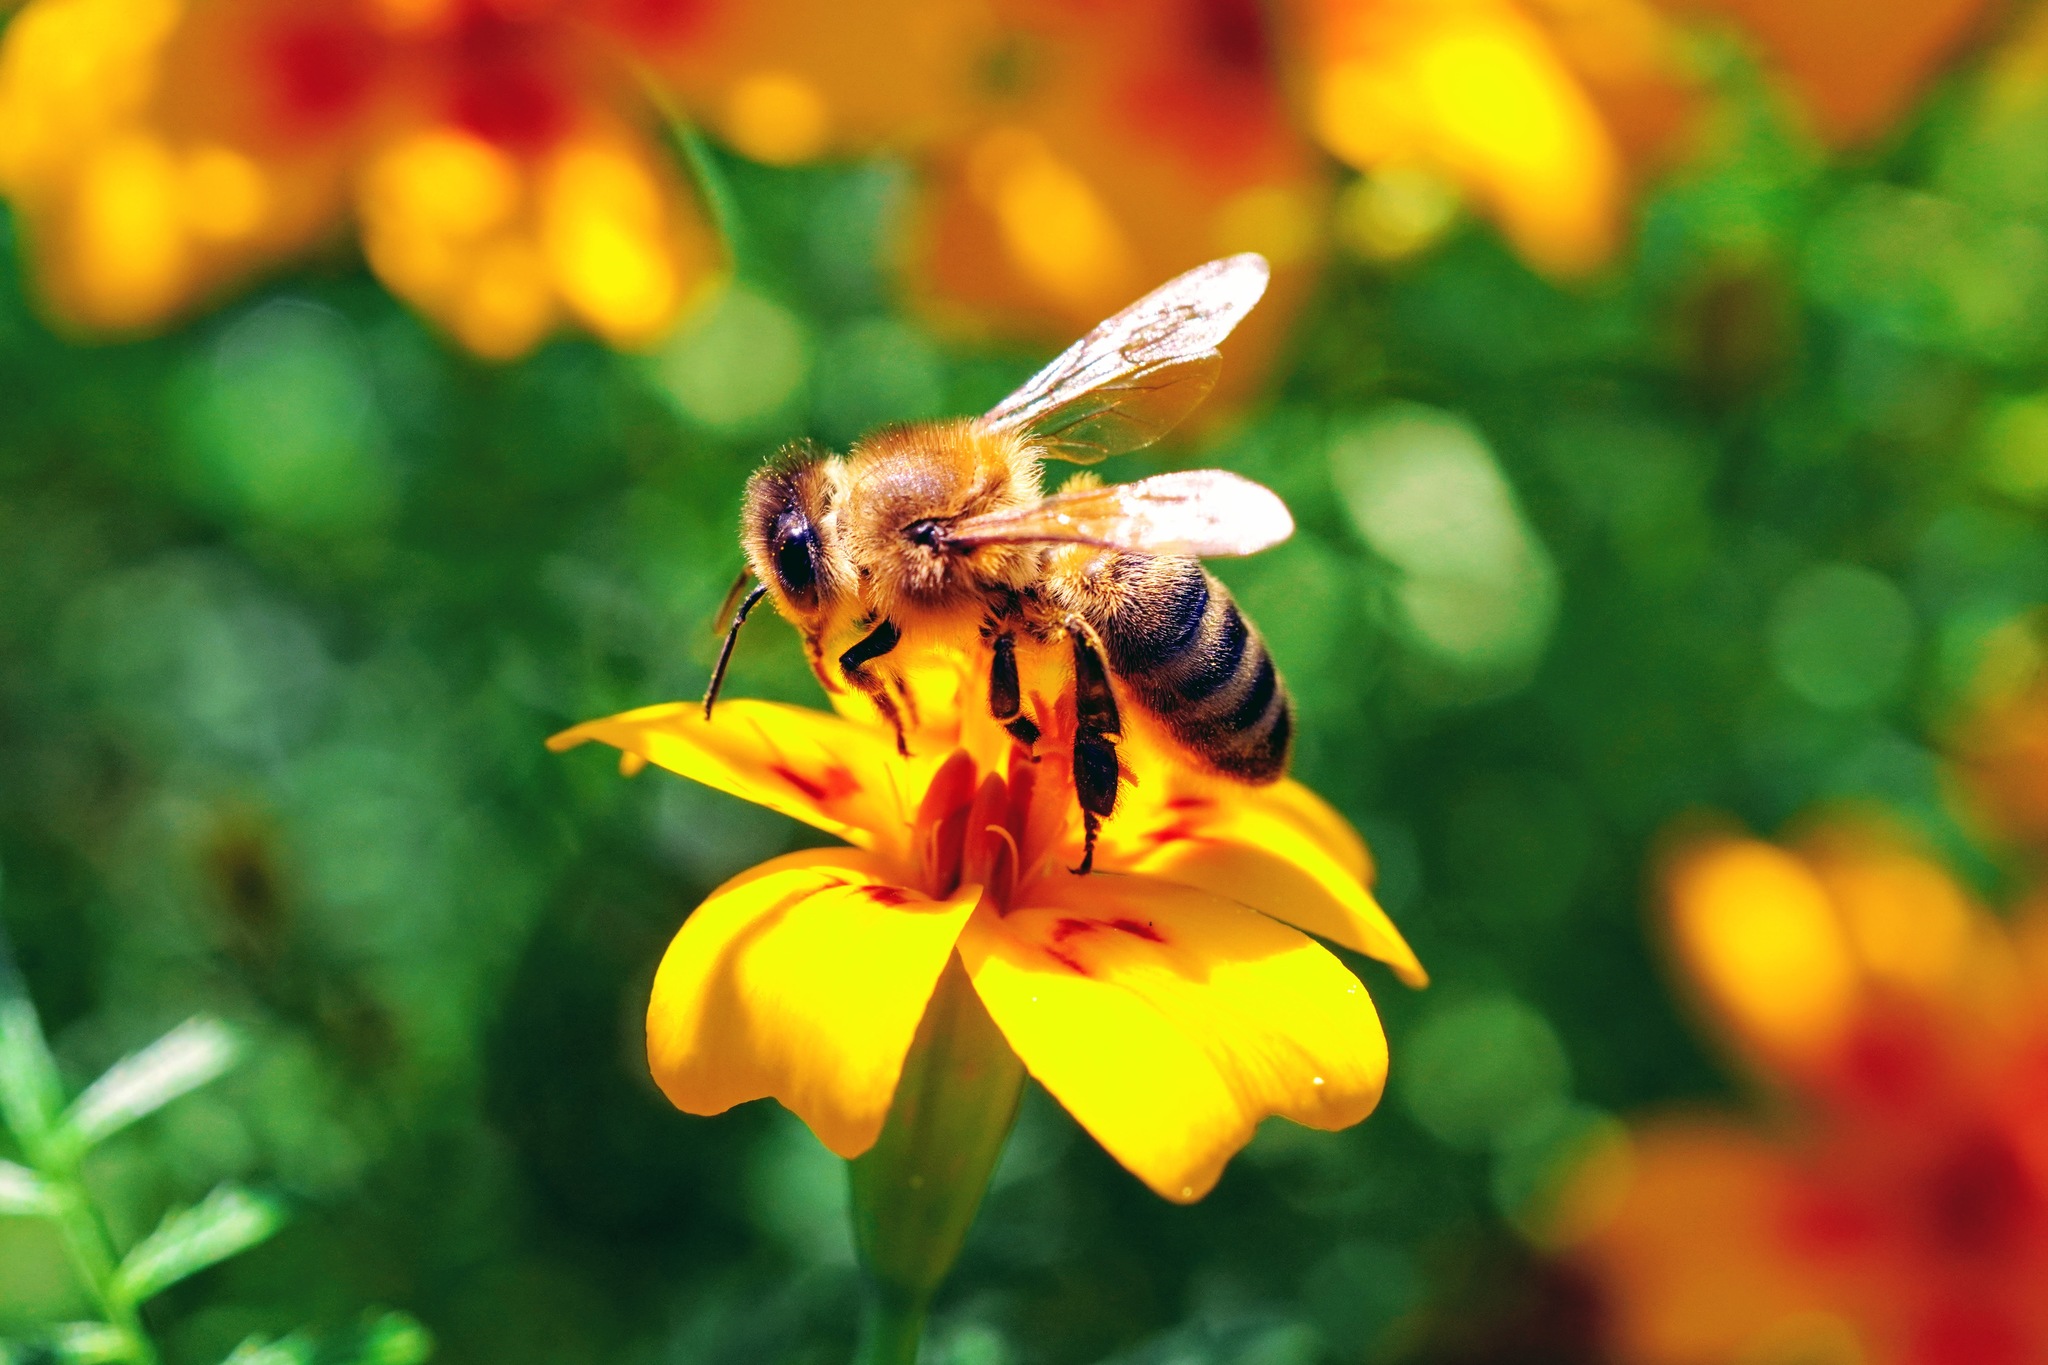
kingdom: Animalia
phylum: Arthropoda
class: Insecta
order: Hymenoptera
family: Apidae
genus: Apis
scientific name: Apis mellifera
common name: Honey bee
